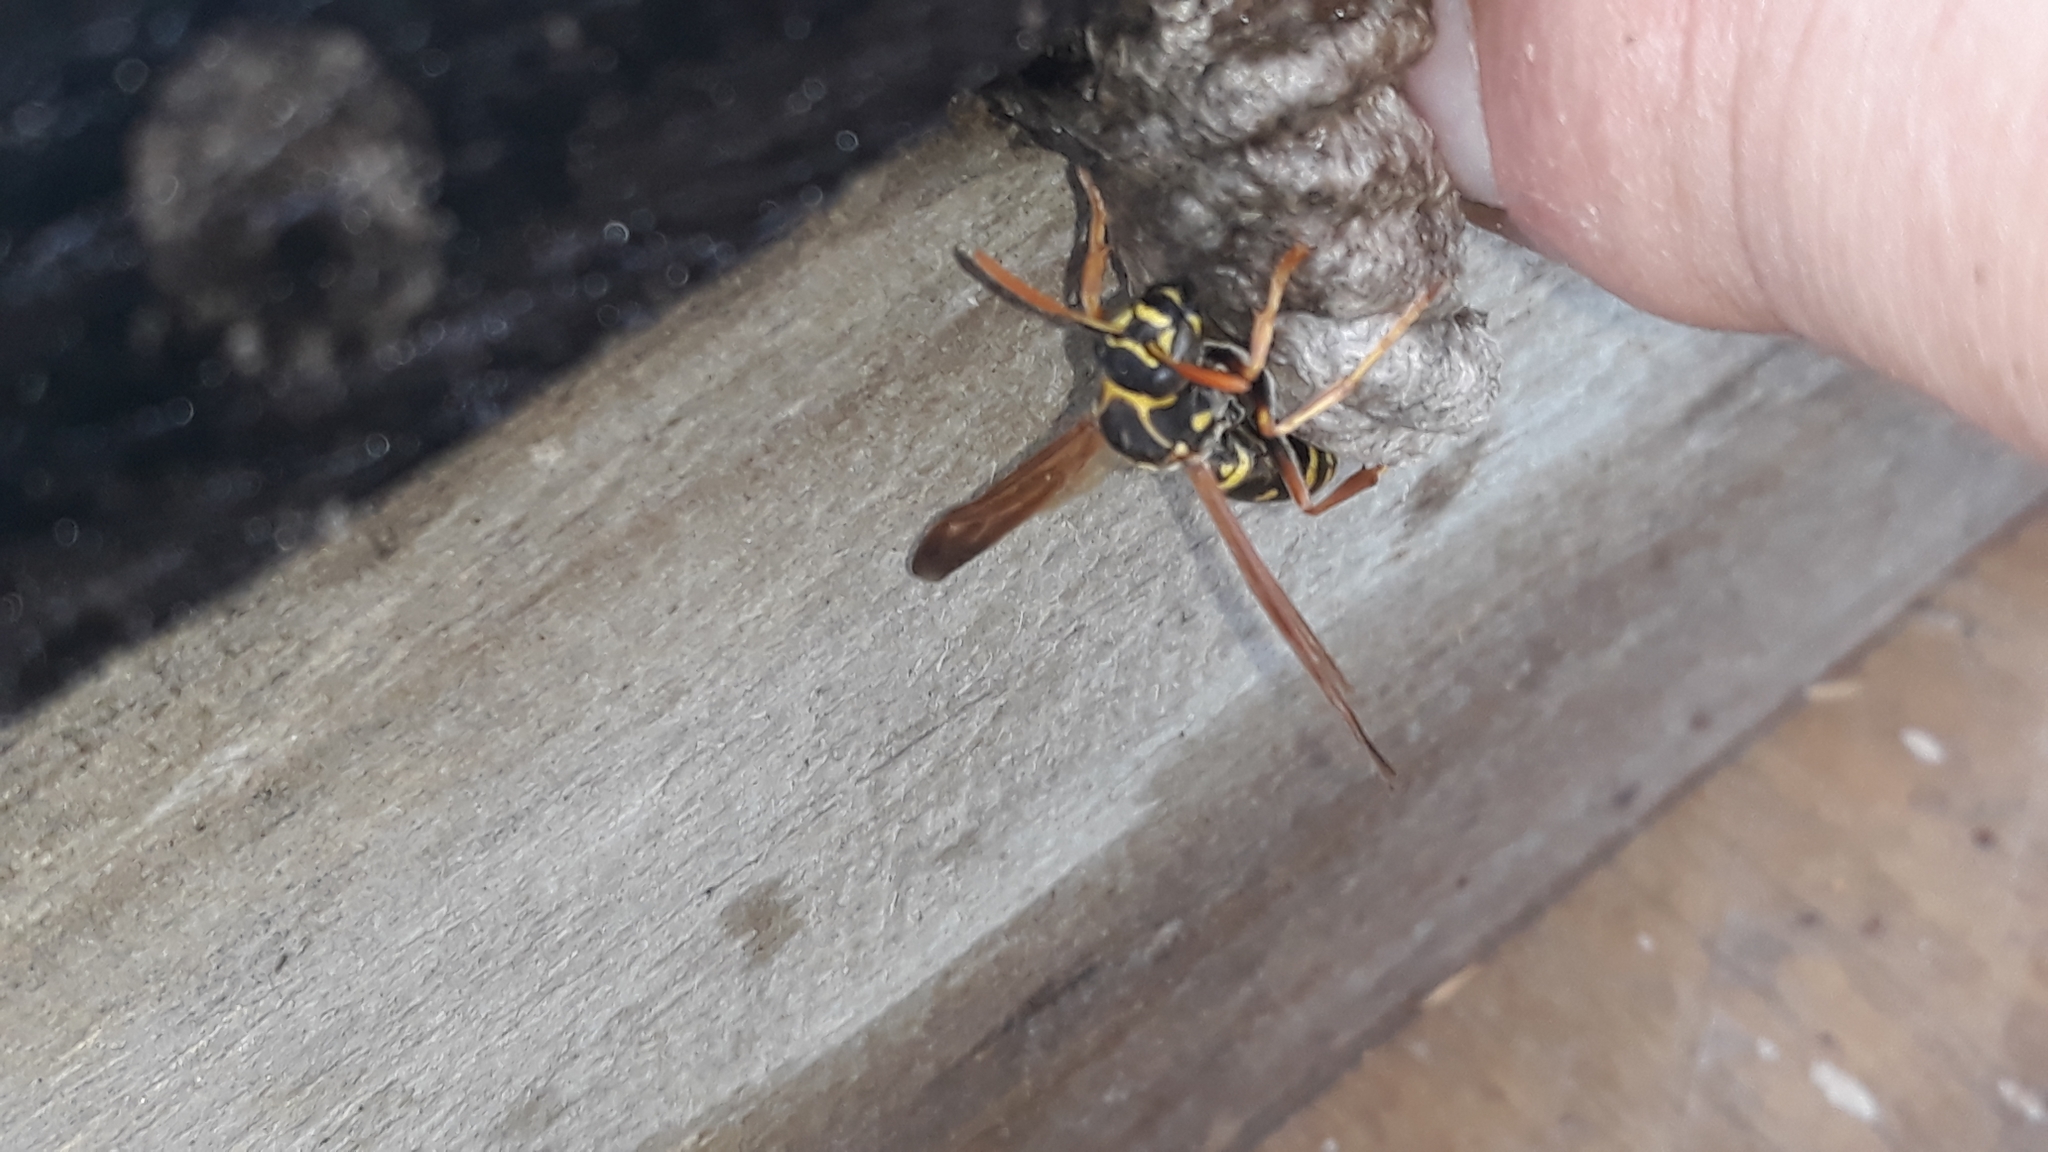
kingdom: Animalia
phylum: Arthropoda
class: Insecta
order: Hymenoptera
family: Eumenidae
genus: Polistes
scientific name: Polistes chinensis
